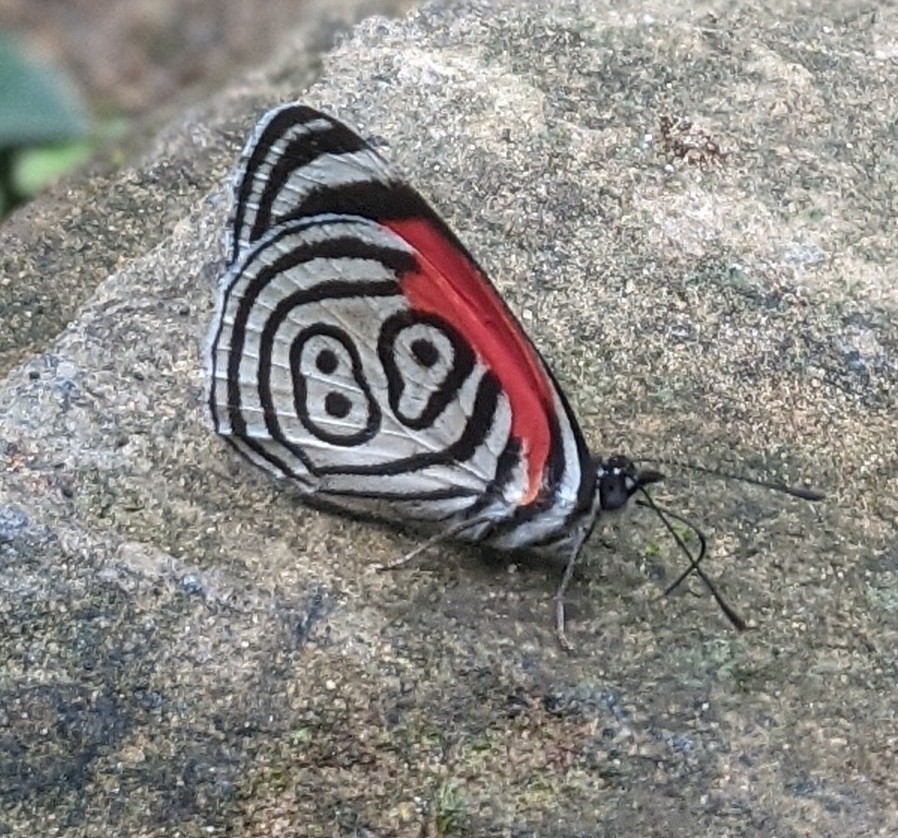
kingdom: Animalia
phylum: Arthropoda
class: Insecta
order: Lepidoptera
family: Nymphalidae
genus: Diaethria
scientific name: Diaethria clymena
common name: Widespread eighty-eight
